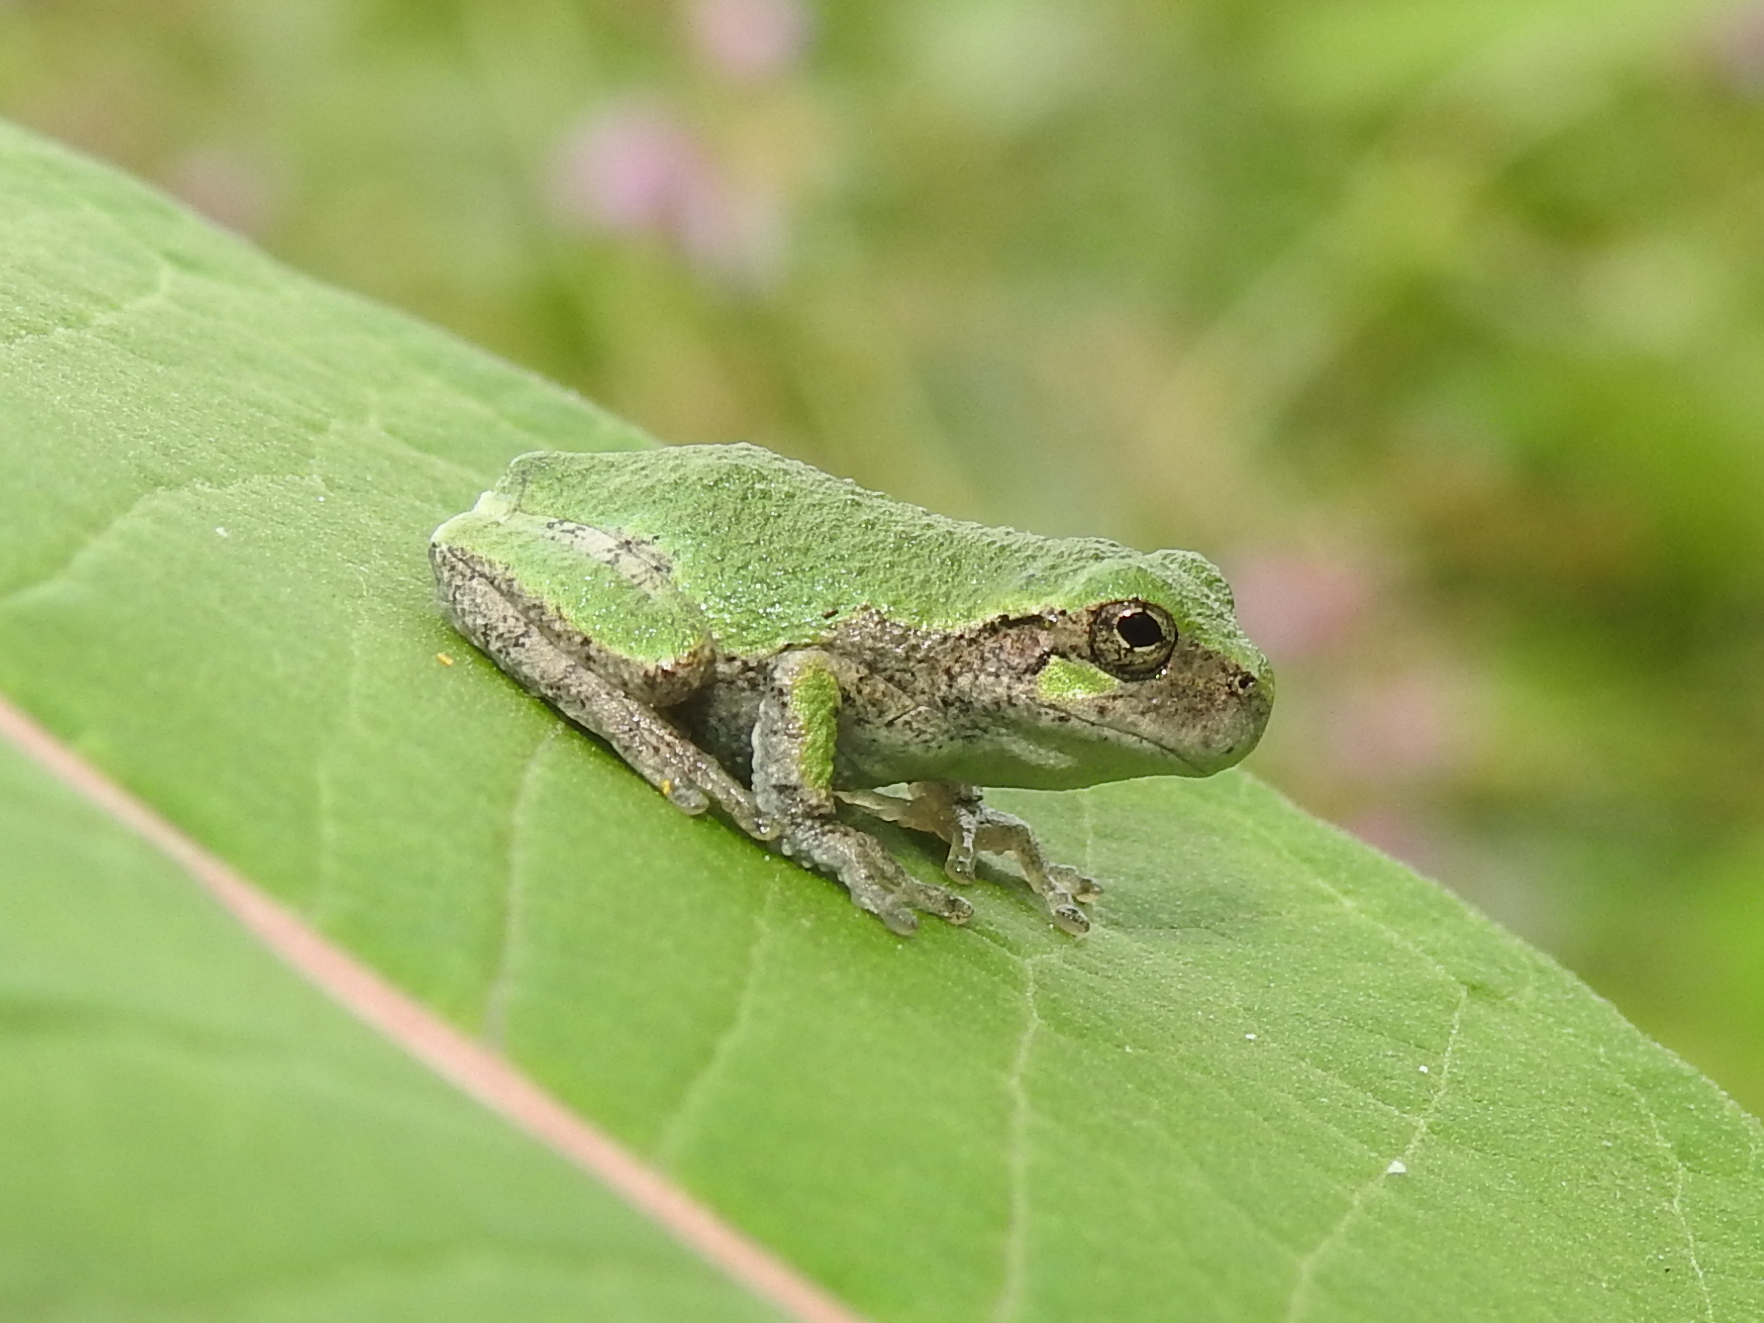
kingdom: Animalia
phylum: Chordata
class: Amphibia
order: Anura
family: Hylidae
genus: Dryophytes
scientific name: Dryophytes versicolor
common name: Gray treefrog
